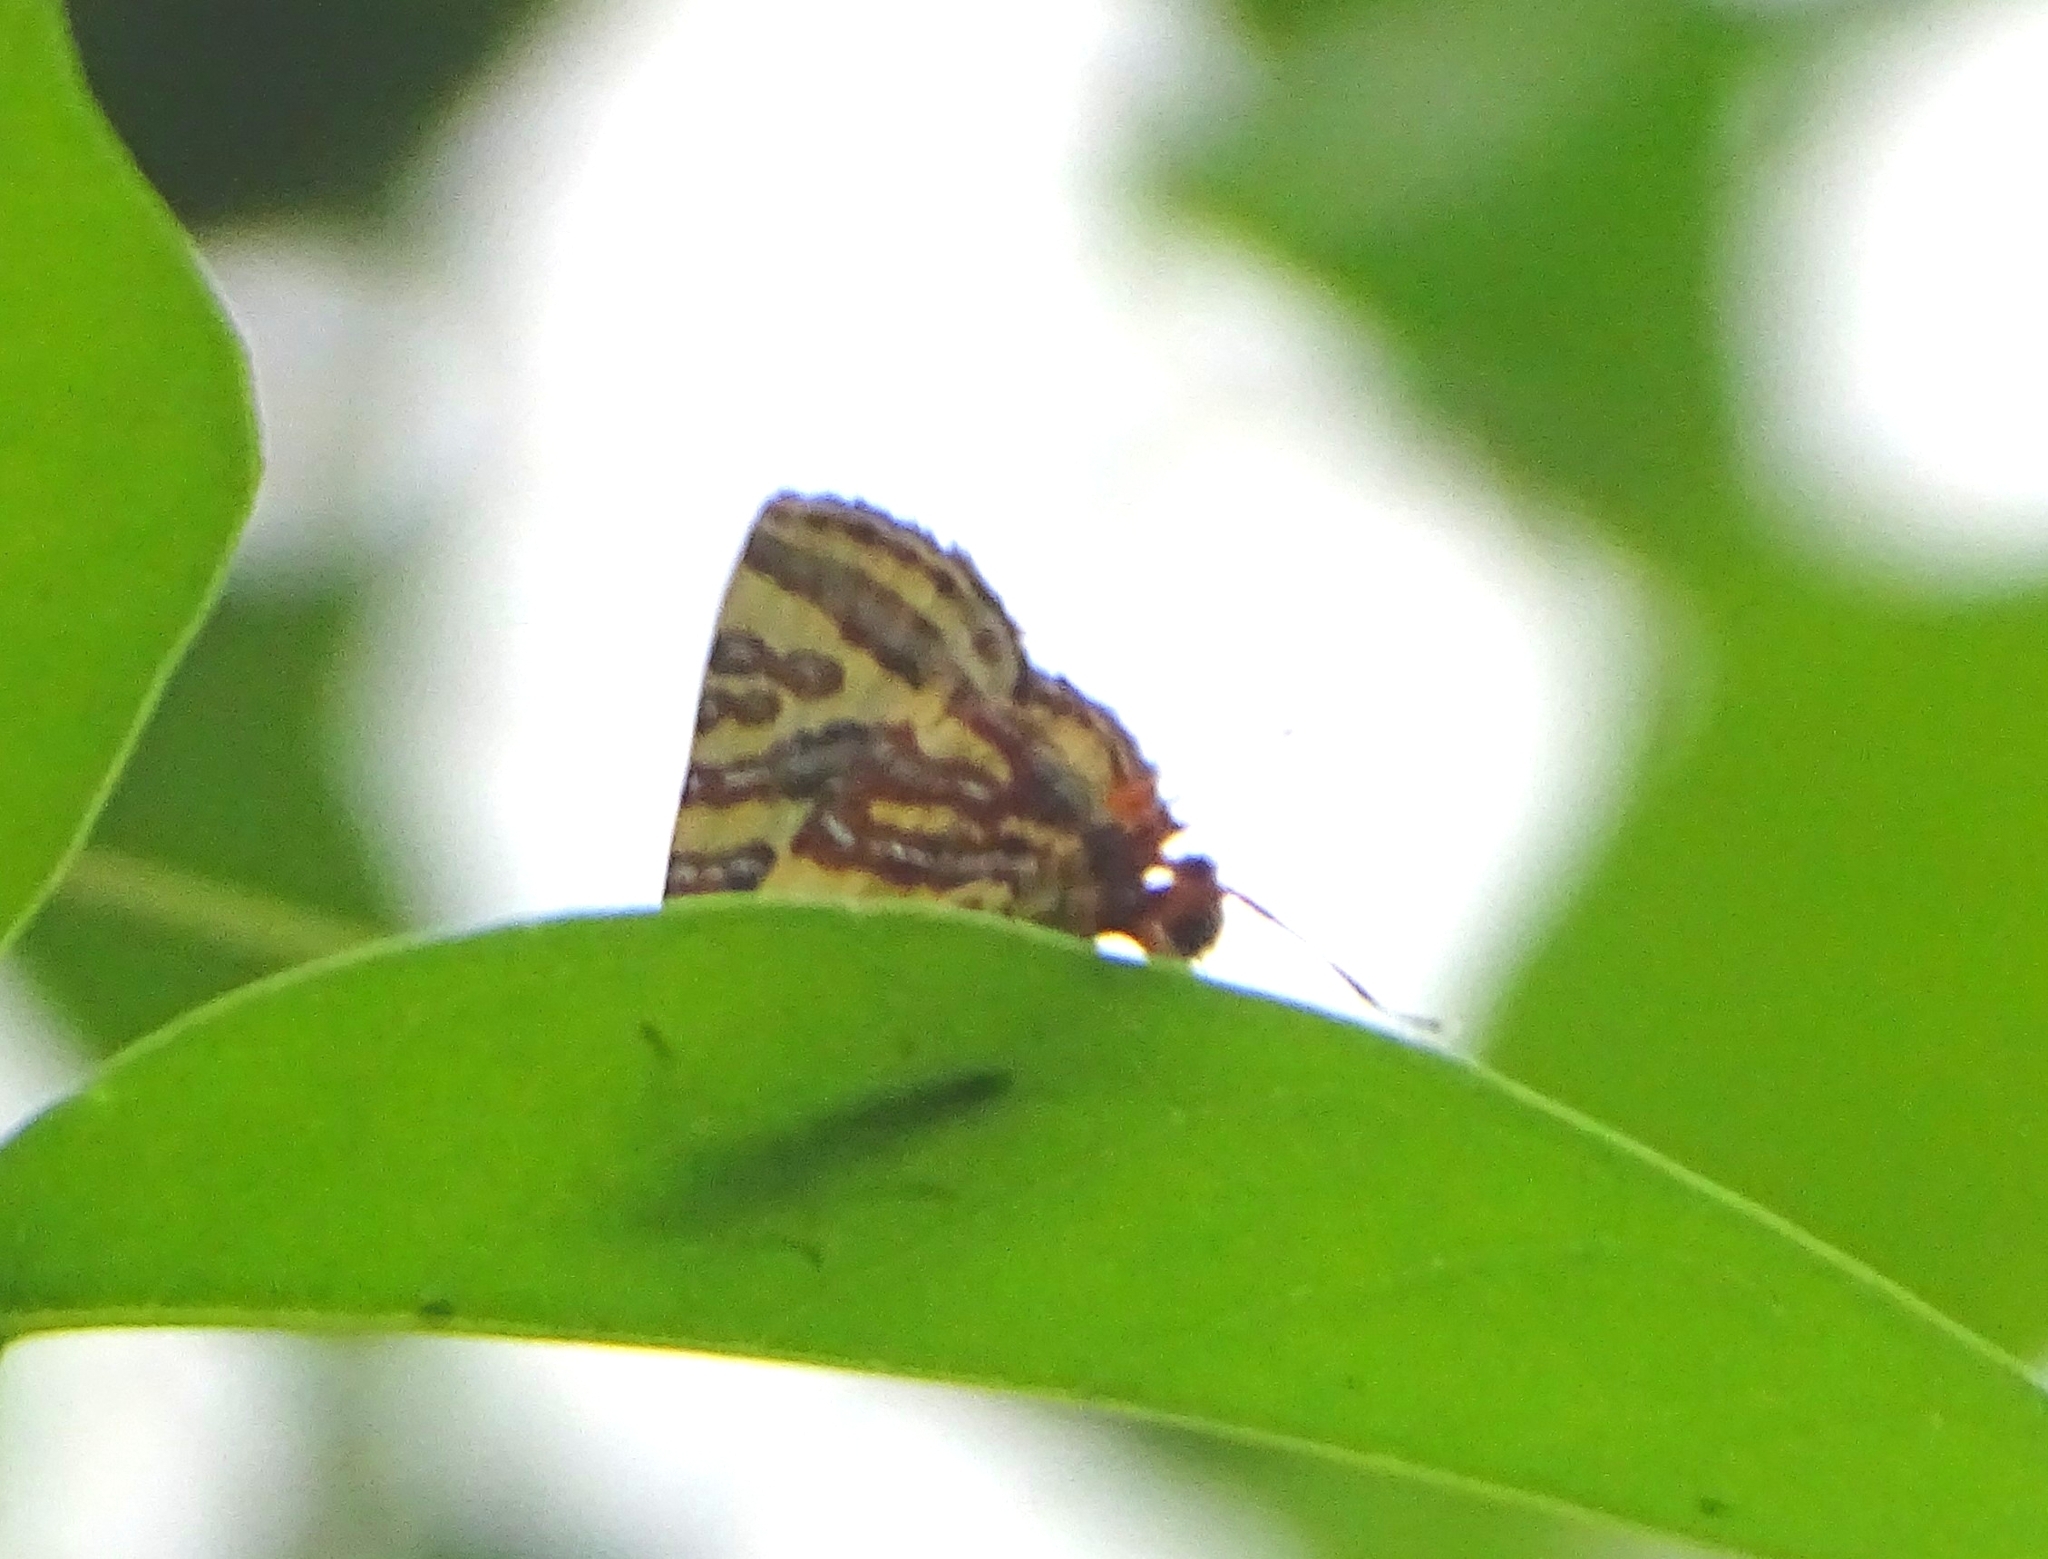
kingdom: Animalia
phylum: Arthropoda
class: Insecta
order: Lepidoptera
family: Lycaenidae
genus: Cigaritis
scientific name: Cigaritis lohita
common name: Long-banded silverline
